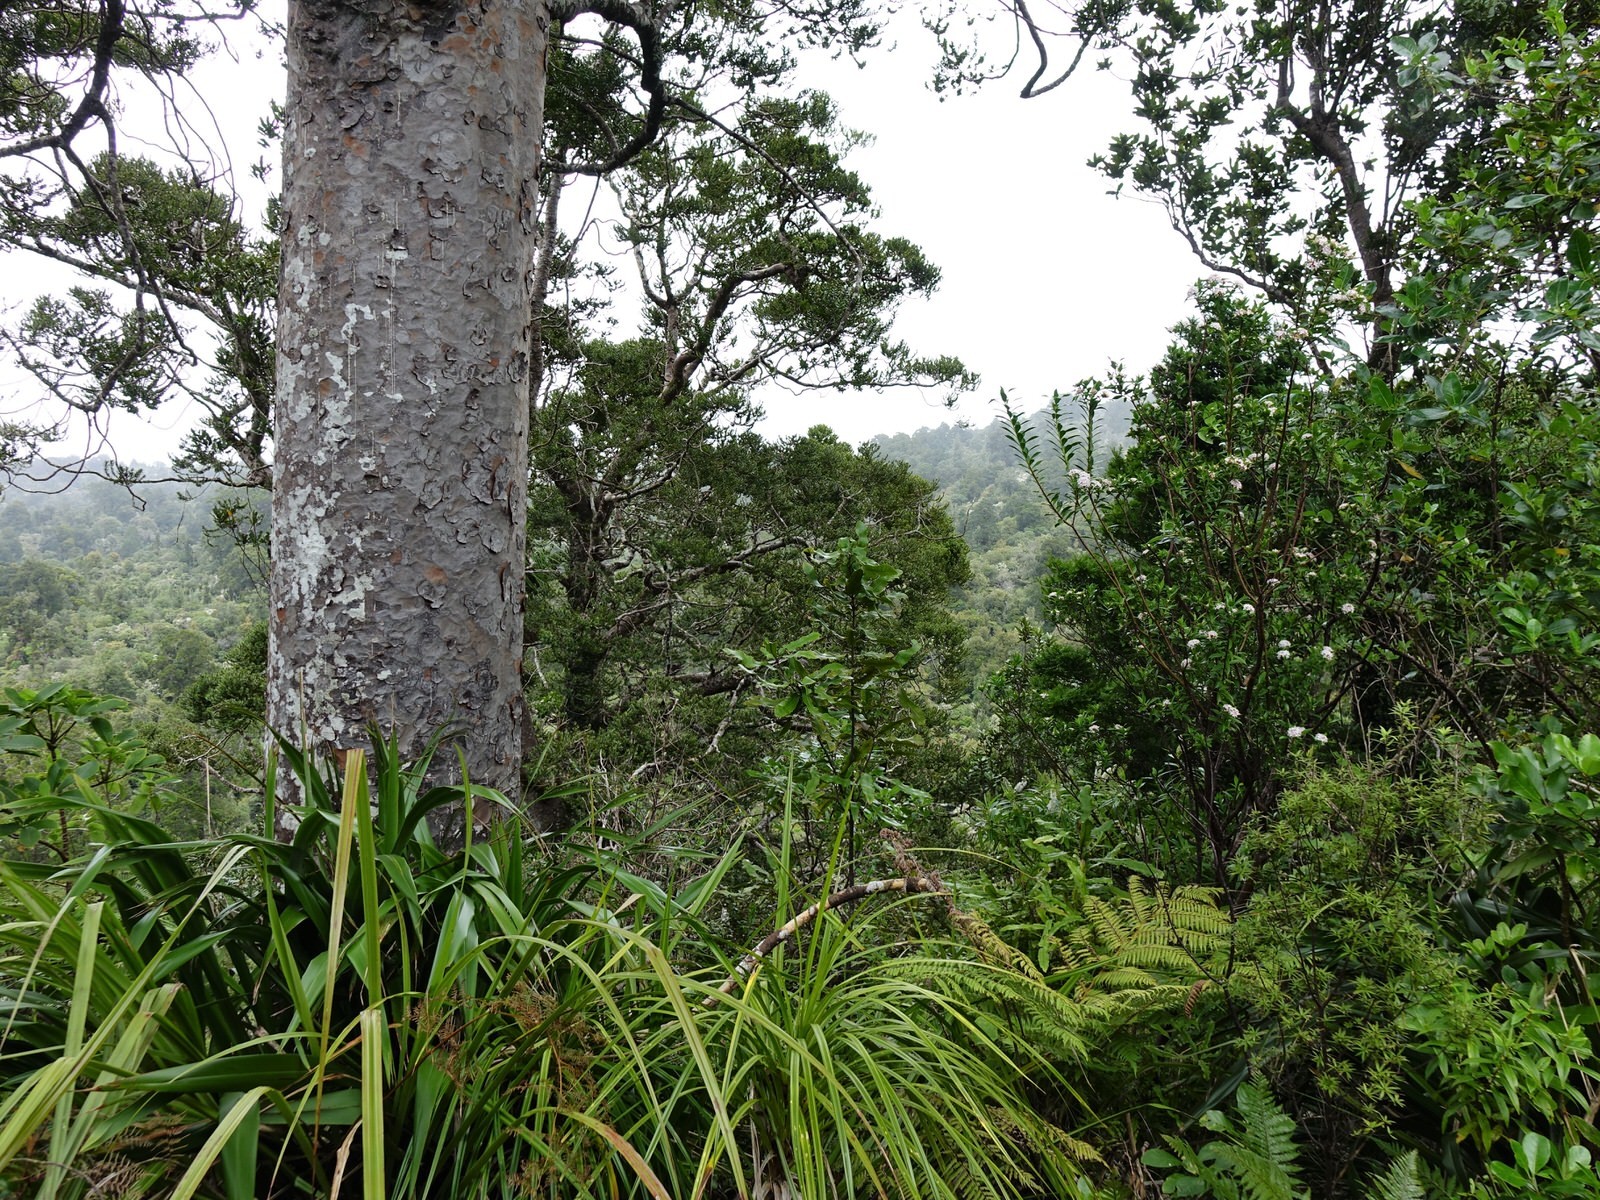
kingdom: Plantae
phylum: Tracheophyta
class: Magnoliopsida
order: Malvales
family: Thymelaeaceae
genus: Pimelea
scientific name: Pimelea longifolia
